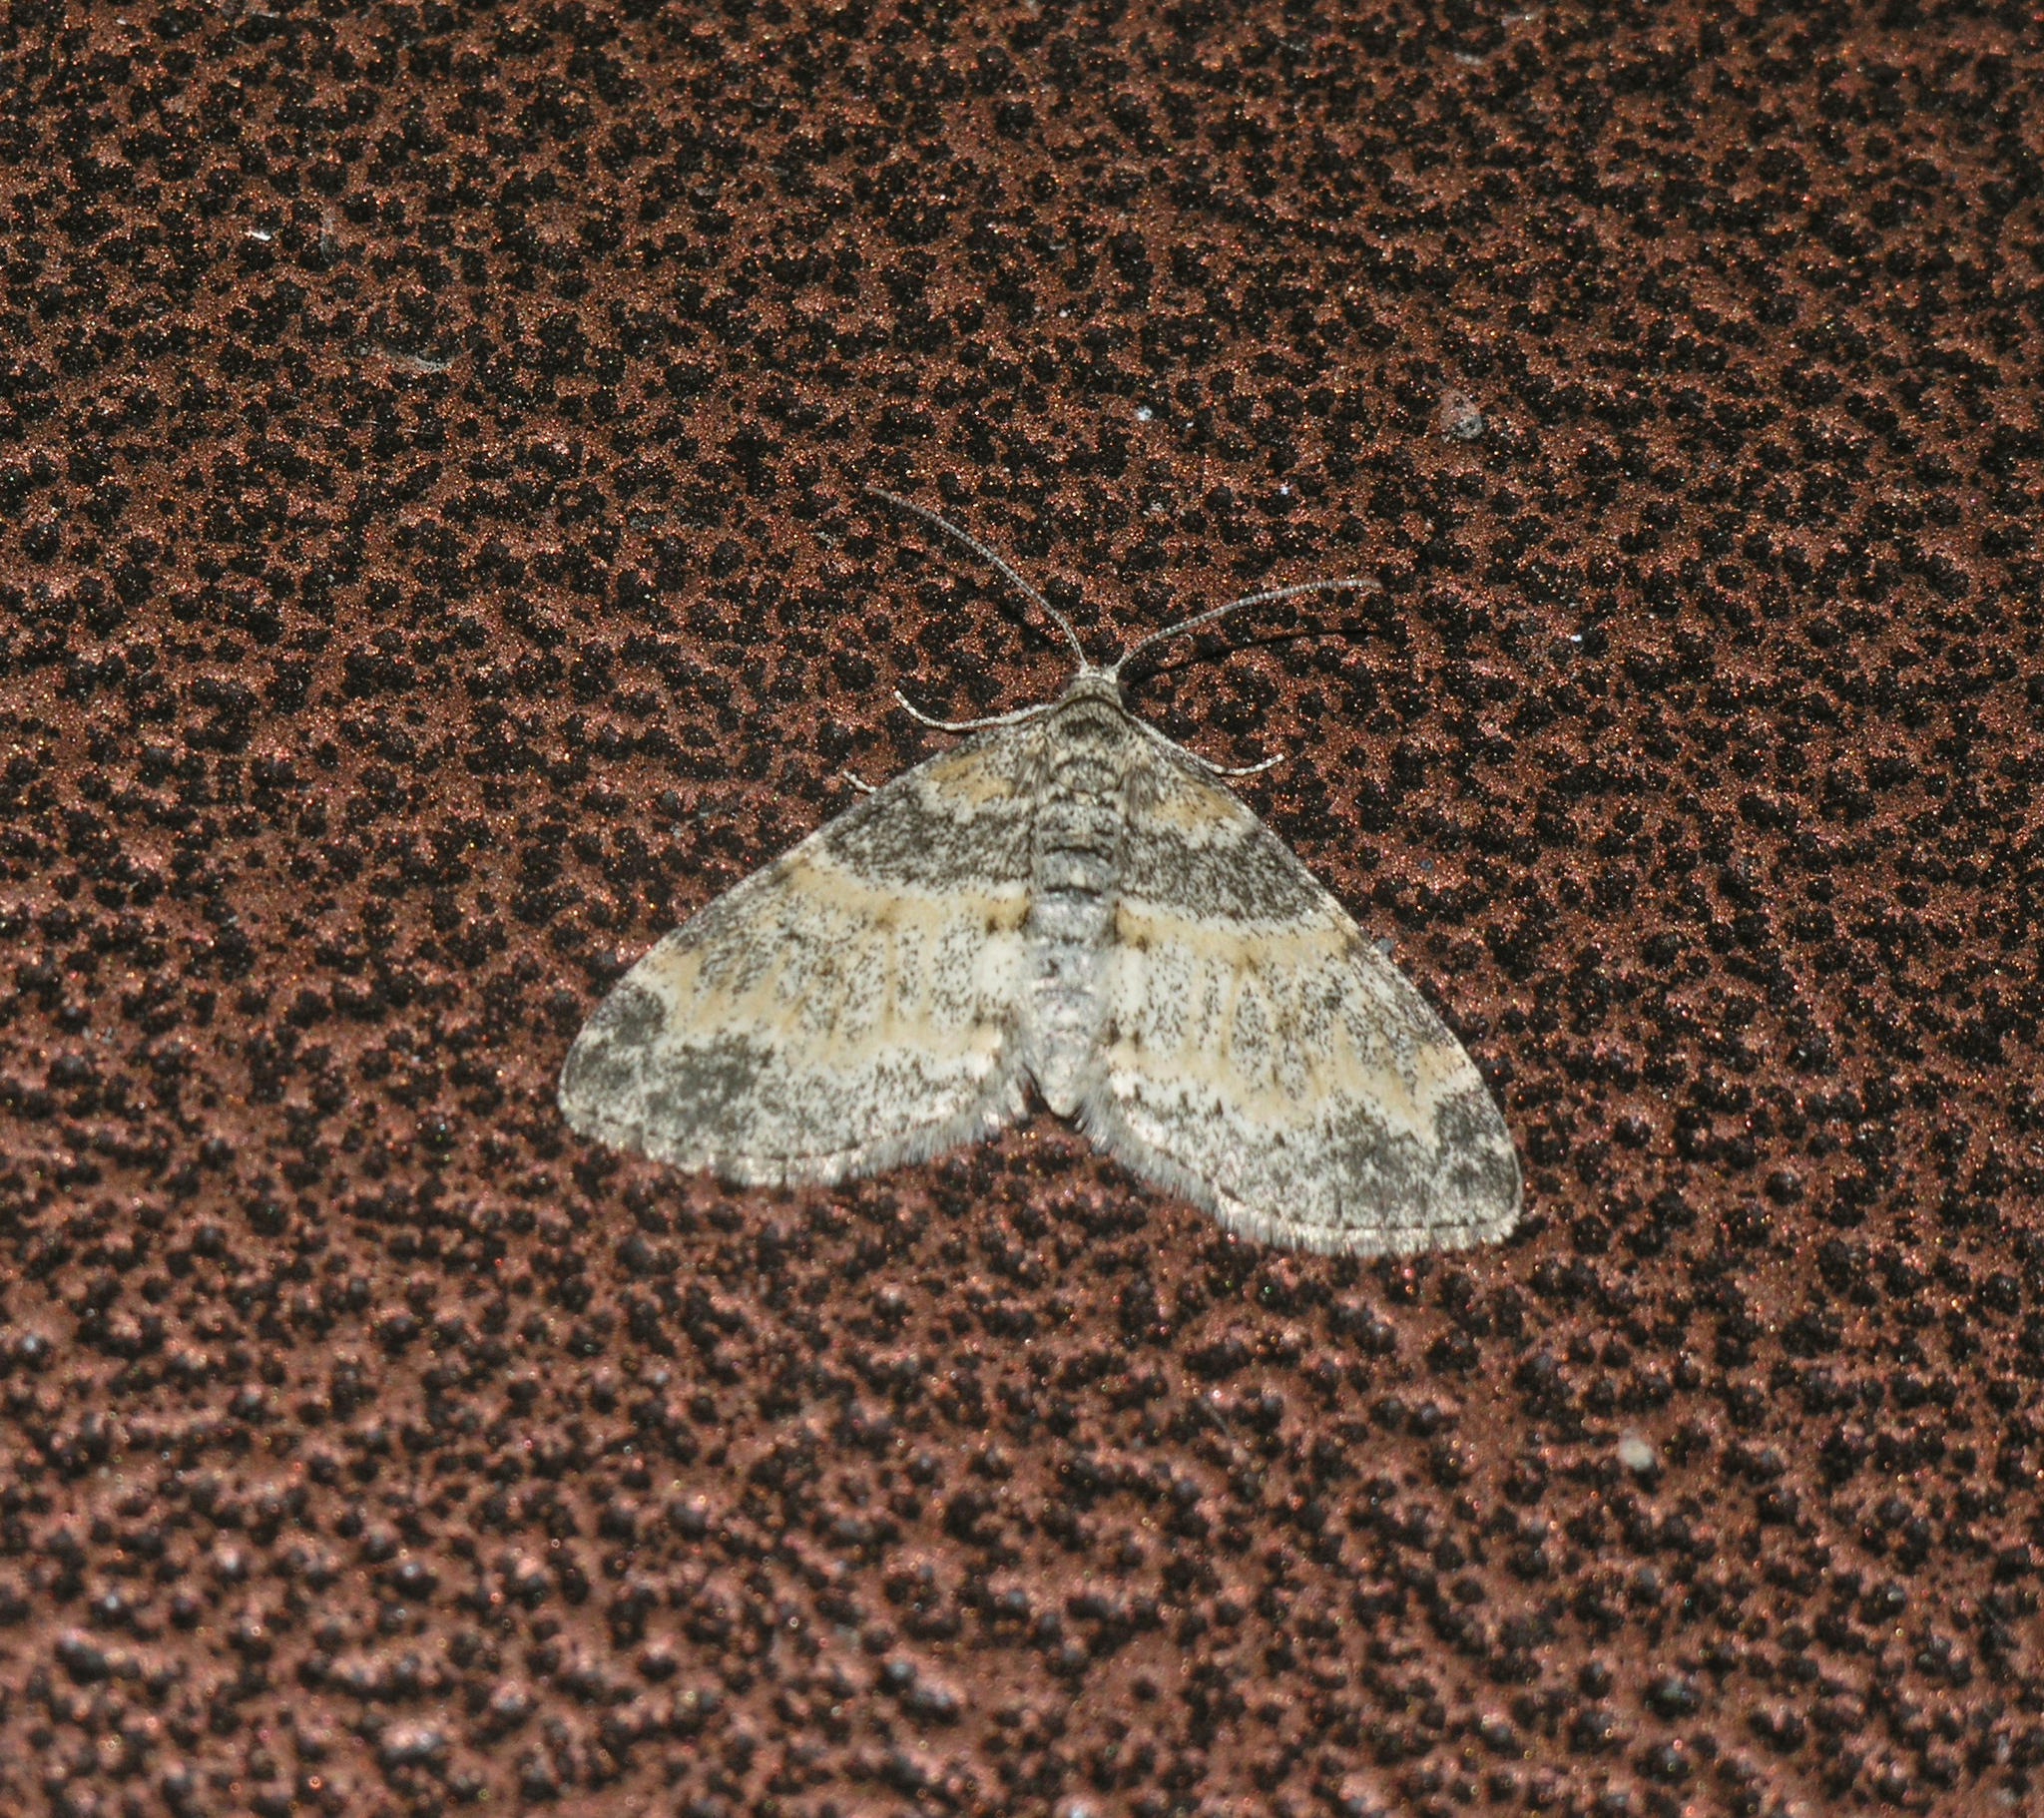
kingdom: Animalia
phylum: Arthropoda
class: Insecta
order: Lepidoptera
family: Geometridae
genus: Lobophora
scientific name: Lobophora halterata
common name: Seraphim
